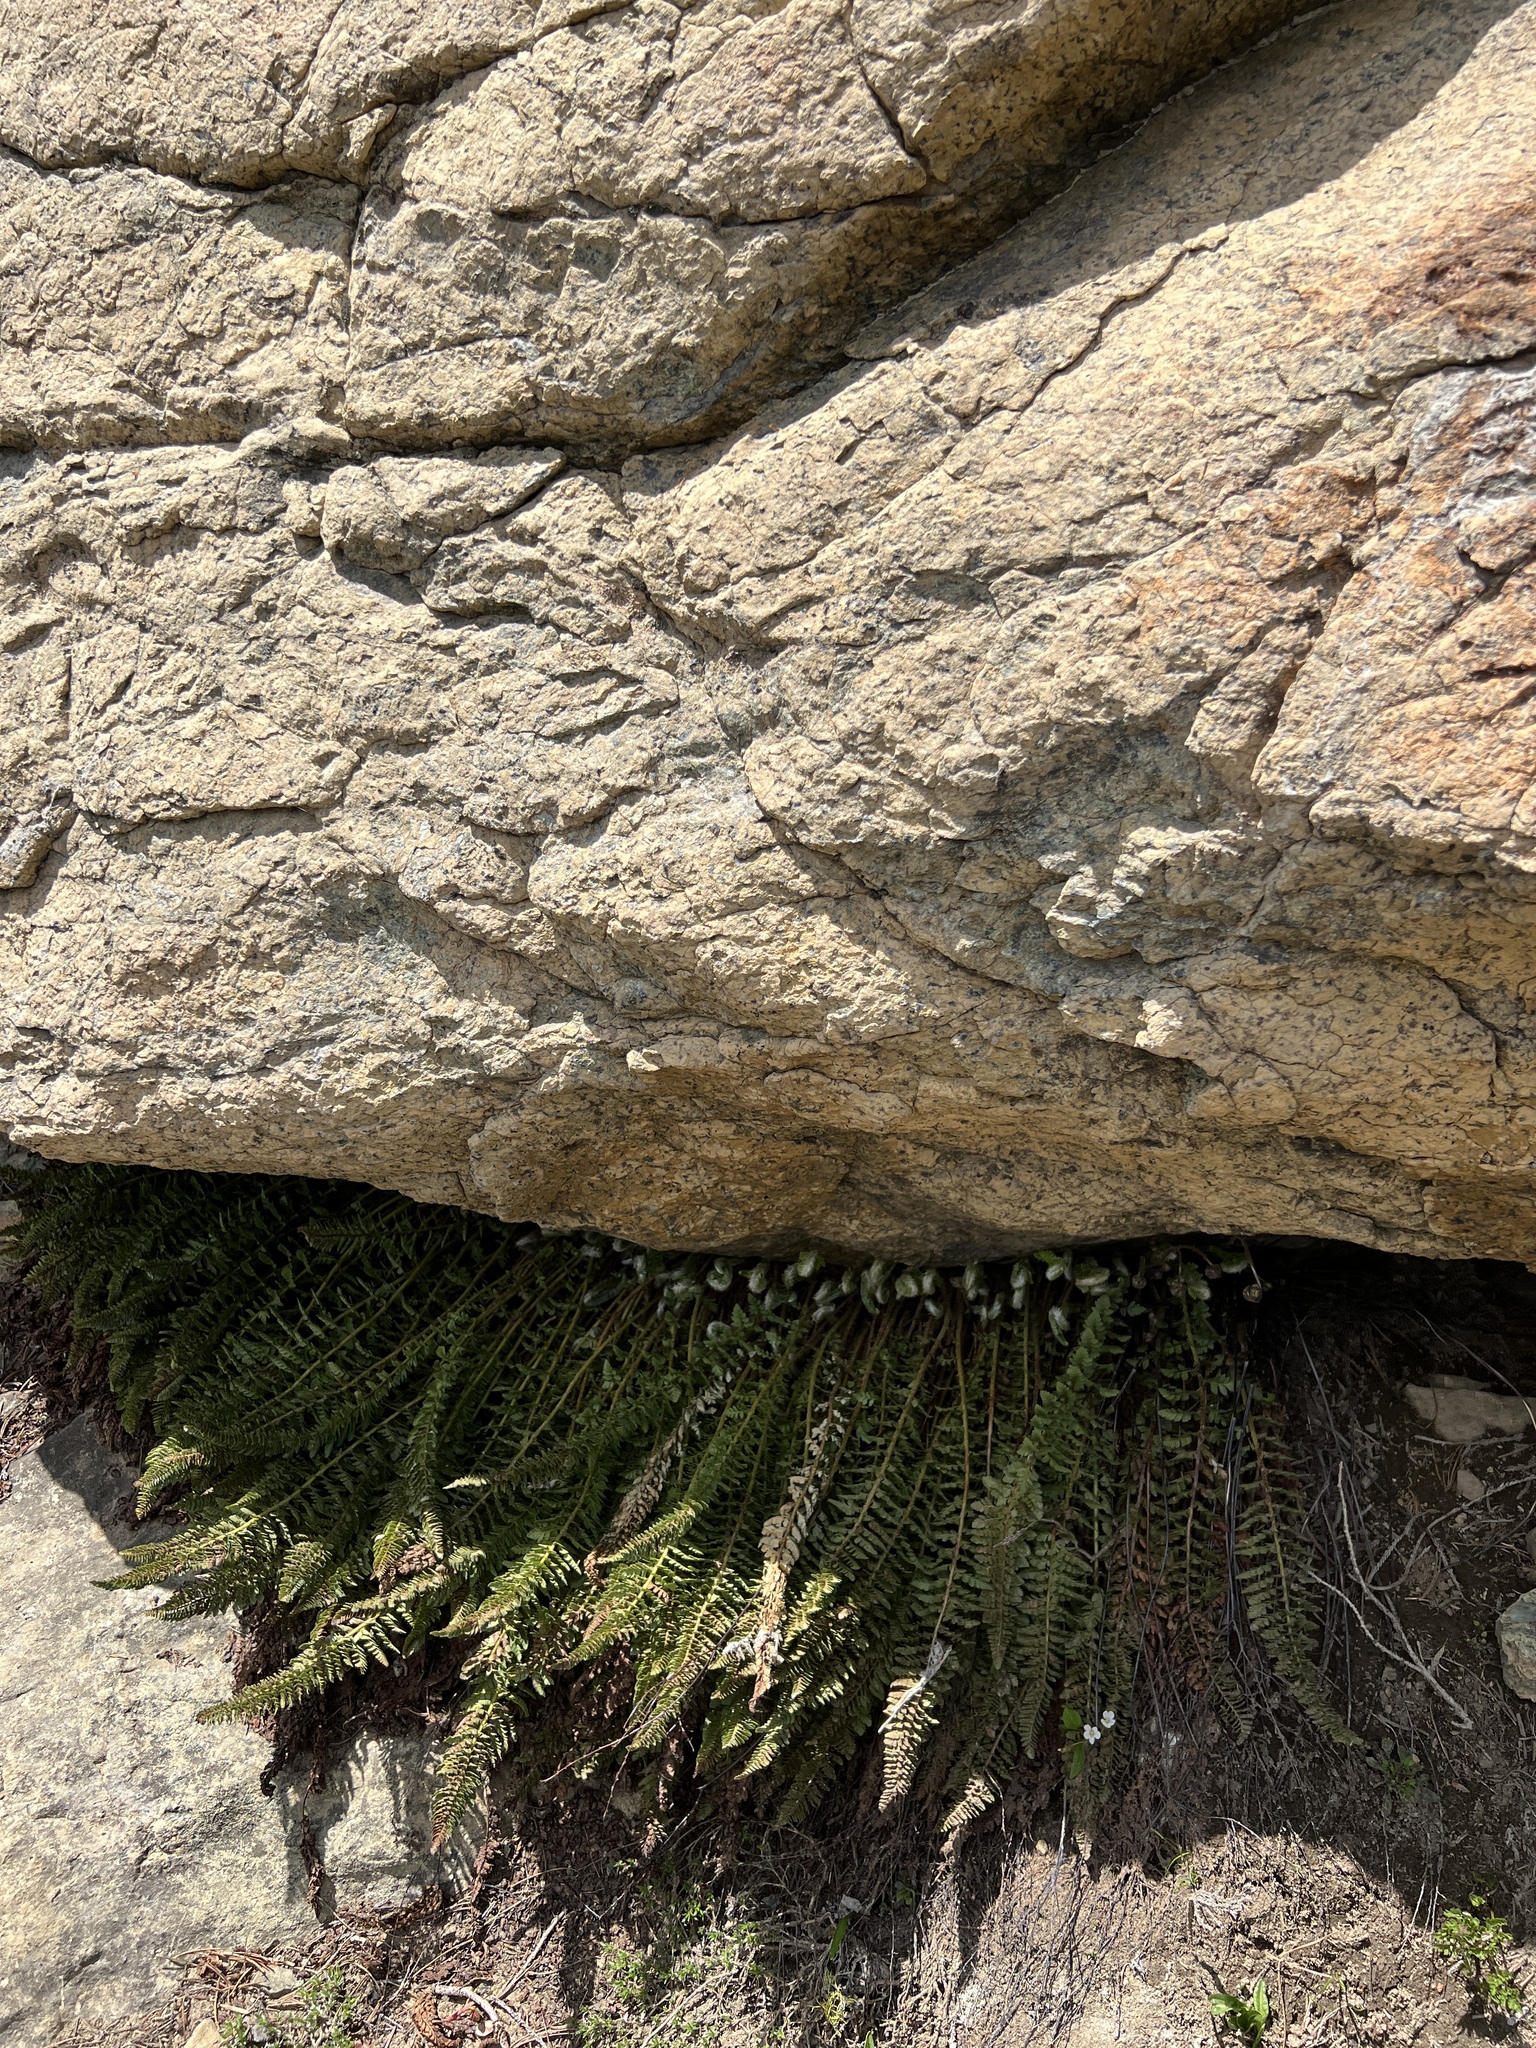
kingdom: Plantae
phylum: Tracheophyta
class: Polypodiopsida
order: Polypodiales
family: Dryopteridaceae
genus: Polystichum
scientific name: Polystichum lemmonii
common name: Lemmon's holly fern
